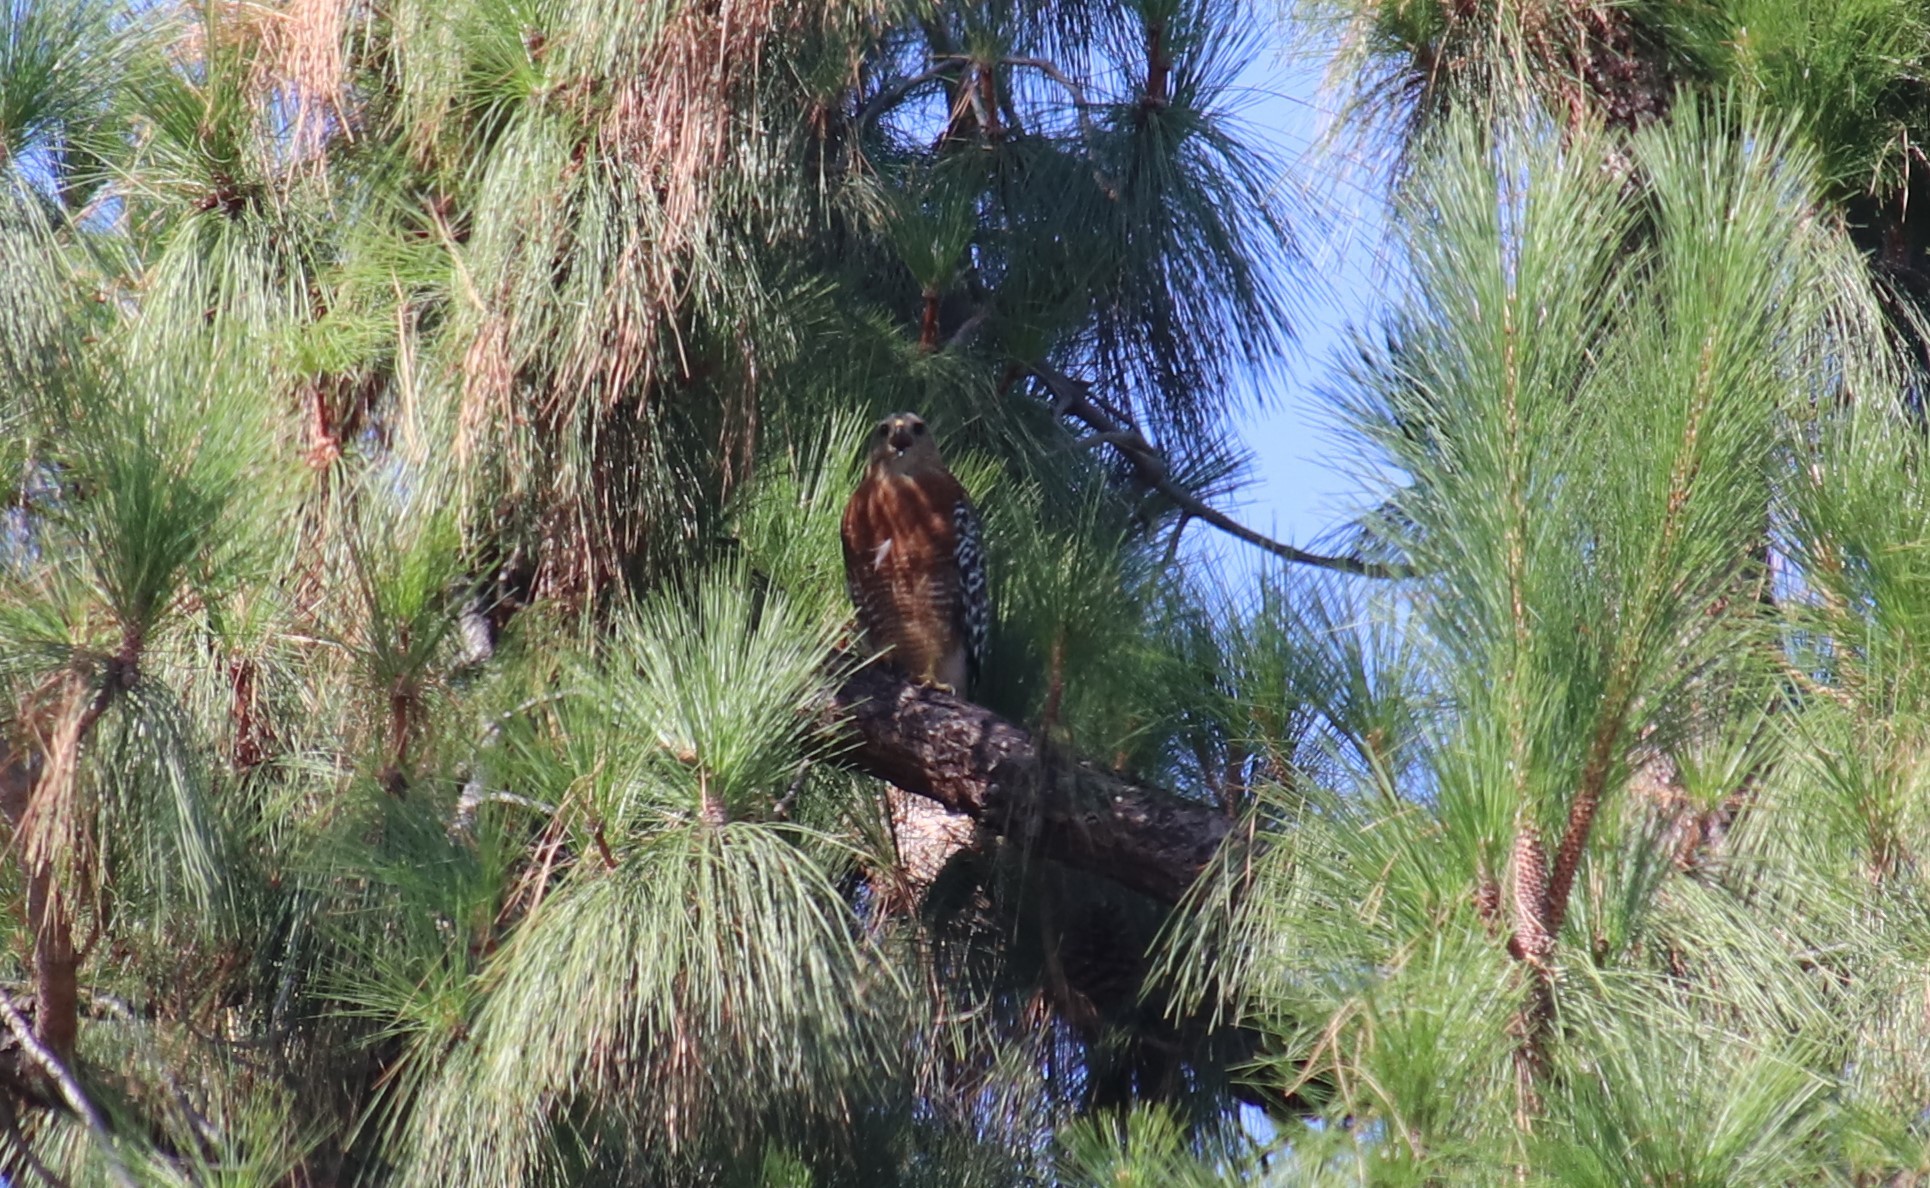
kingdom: Animalia
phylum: Chordata
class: Aves
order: Accipitriformes
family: Accipitridae
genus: Buteo
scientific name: Buteo lineatus
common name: Red-shouldered hawk
